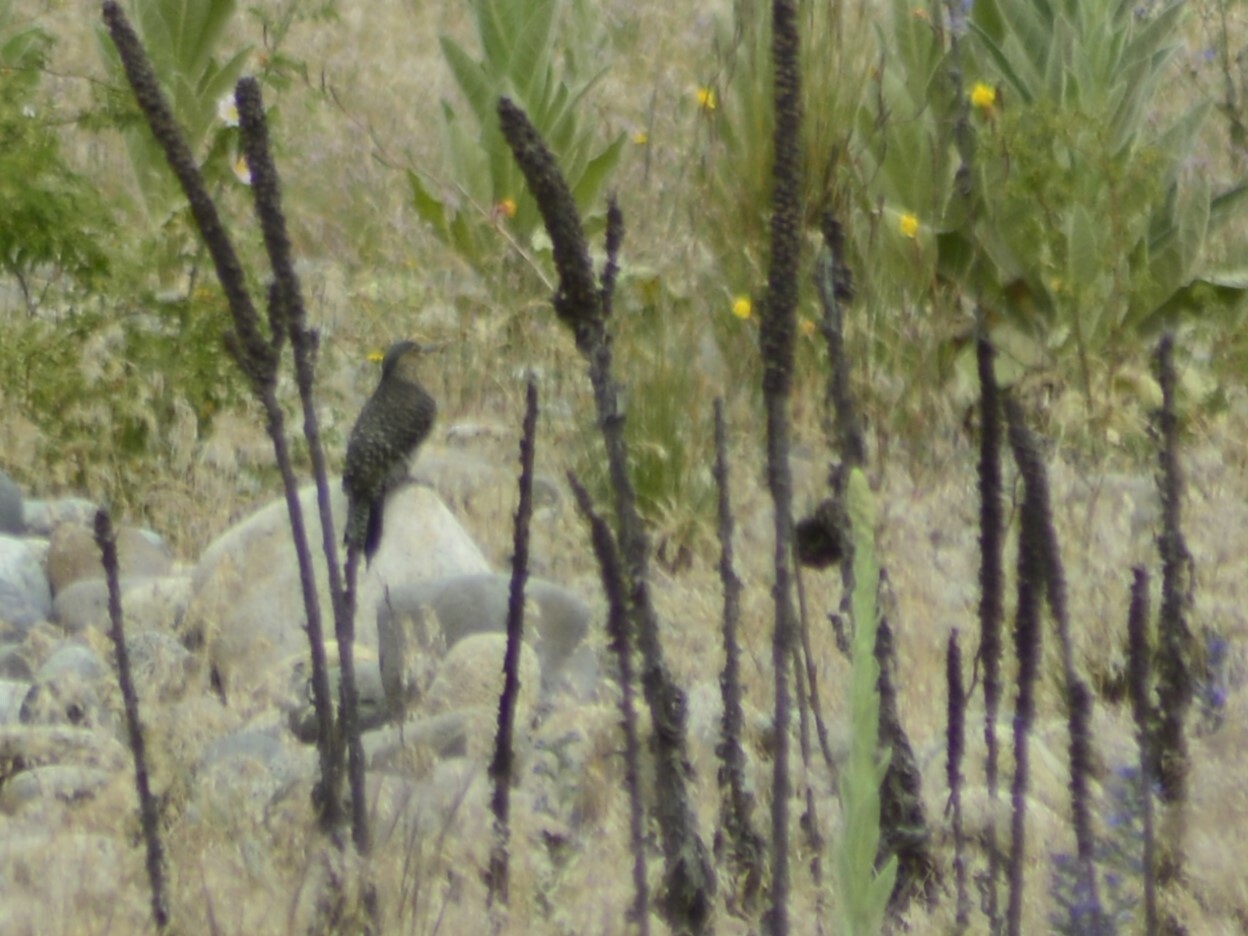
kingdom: Animalia
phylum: Chordata
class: Aves
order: Piciformes
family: Picidae
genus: Colaptes
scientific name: Colaptes pitius
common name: Chilean flicker
